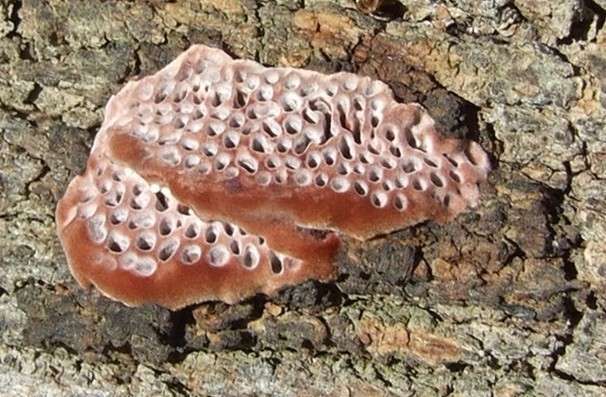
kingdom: Fungi
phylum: Basidiomycota
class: Agaricomycetes
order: Polyporales
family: Polyporaceae
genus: Phaeotrametes
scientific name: Phaeotrametes decipiens
